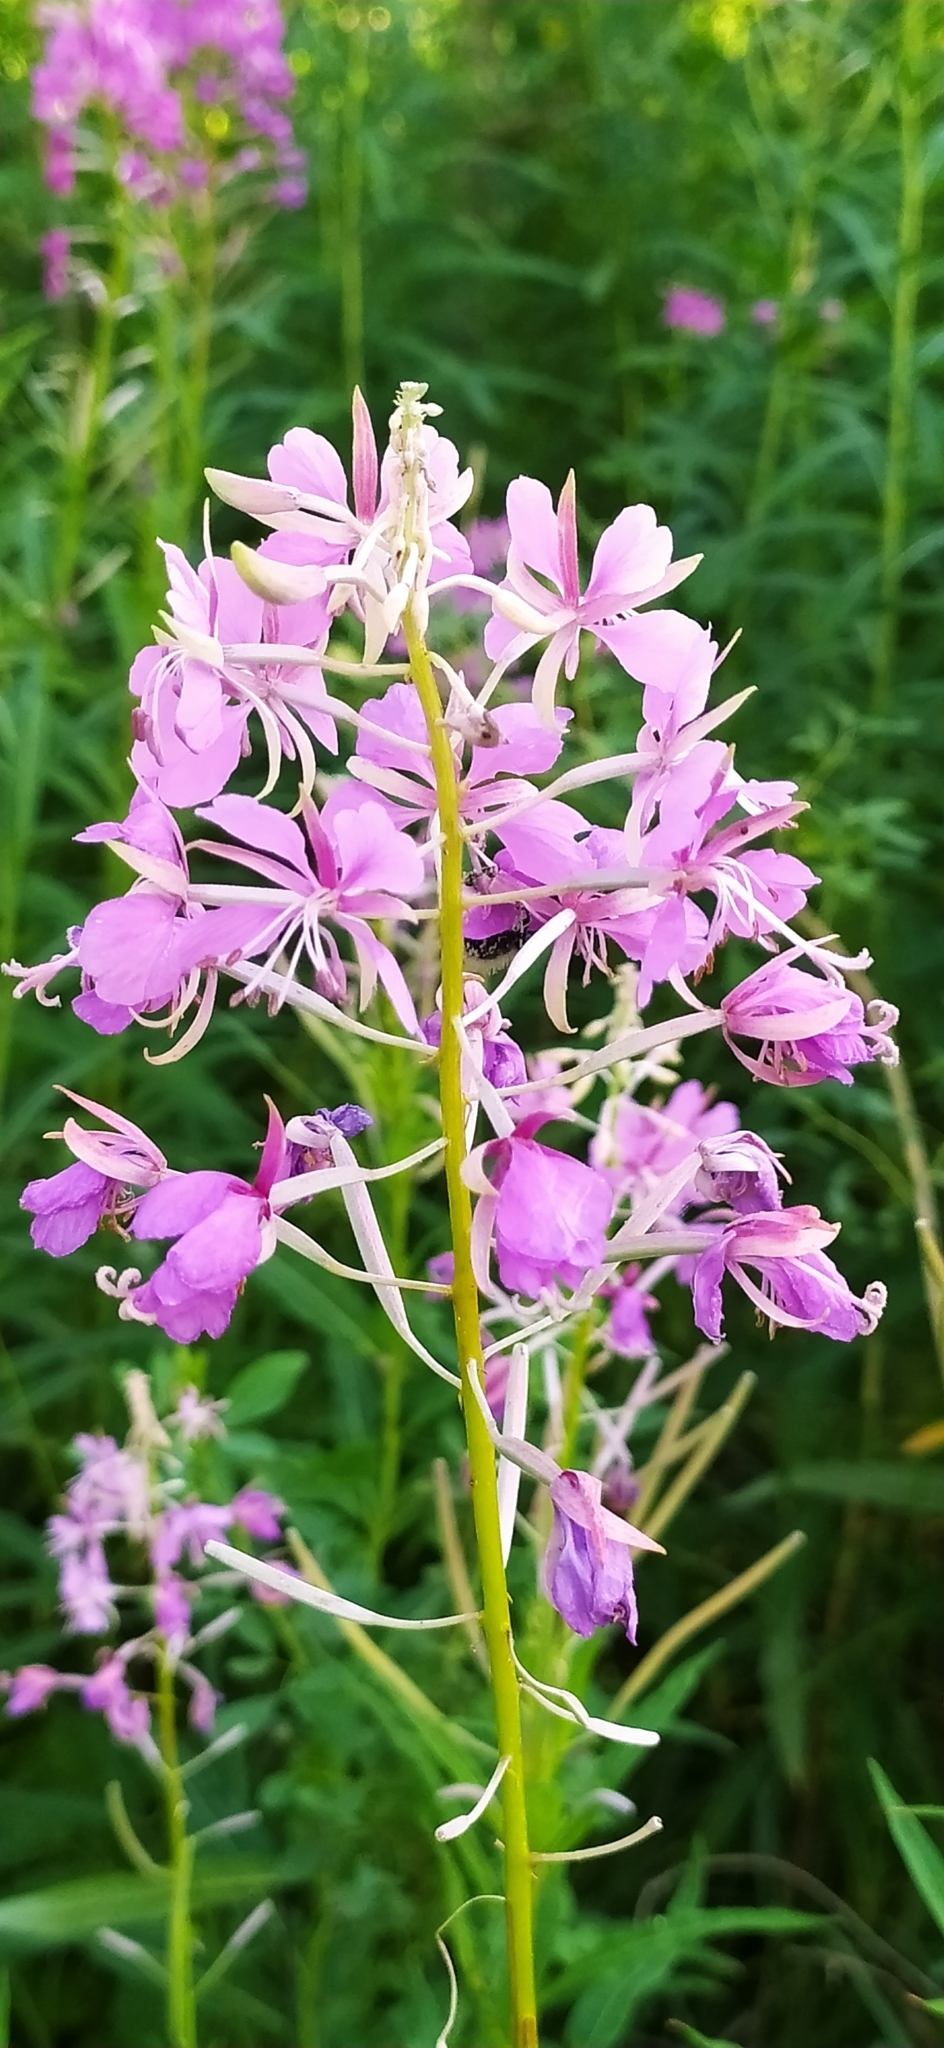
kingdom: Plantae
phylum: Tracheophyta
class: Magnoliopsida
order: Myrtales
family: Onagraceae
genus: Chamaenerion
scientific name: Chamaenerion angustifolium
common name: Fireweed
